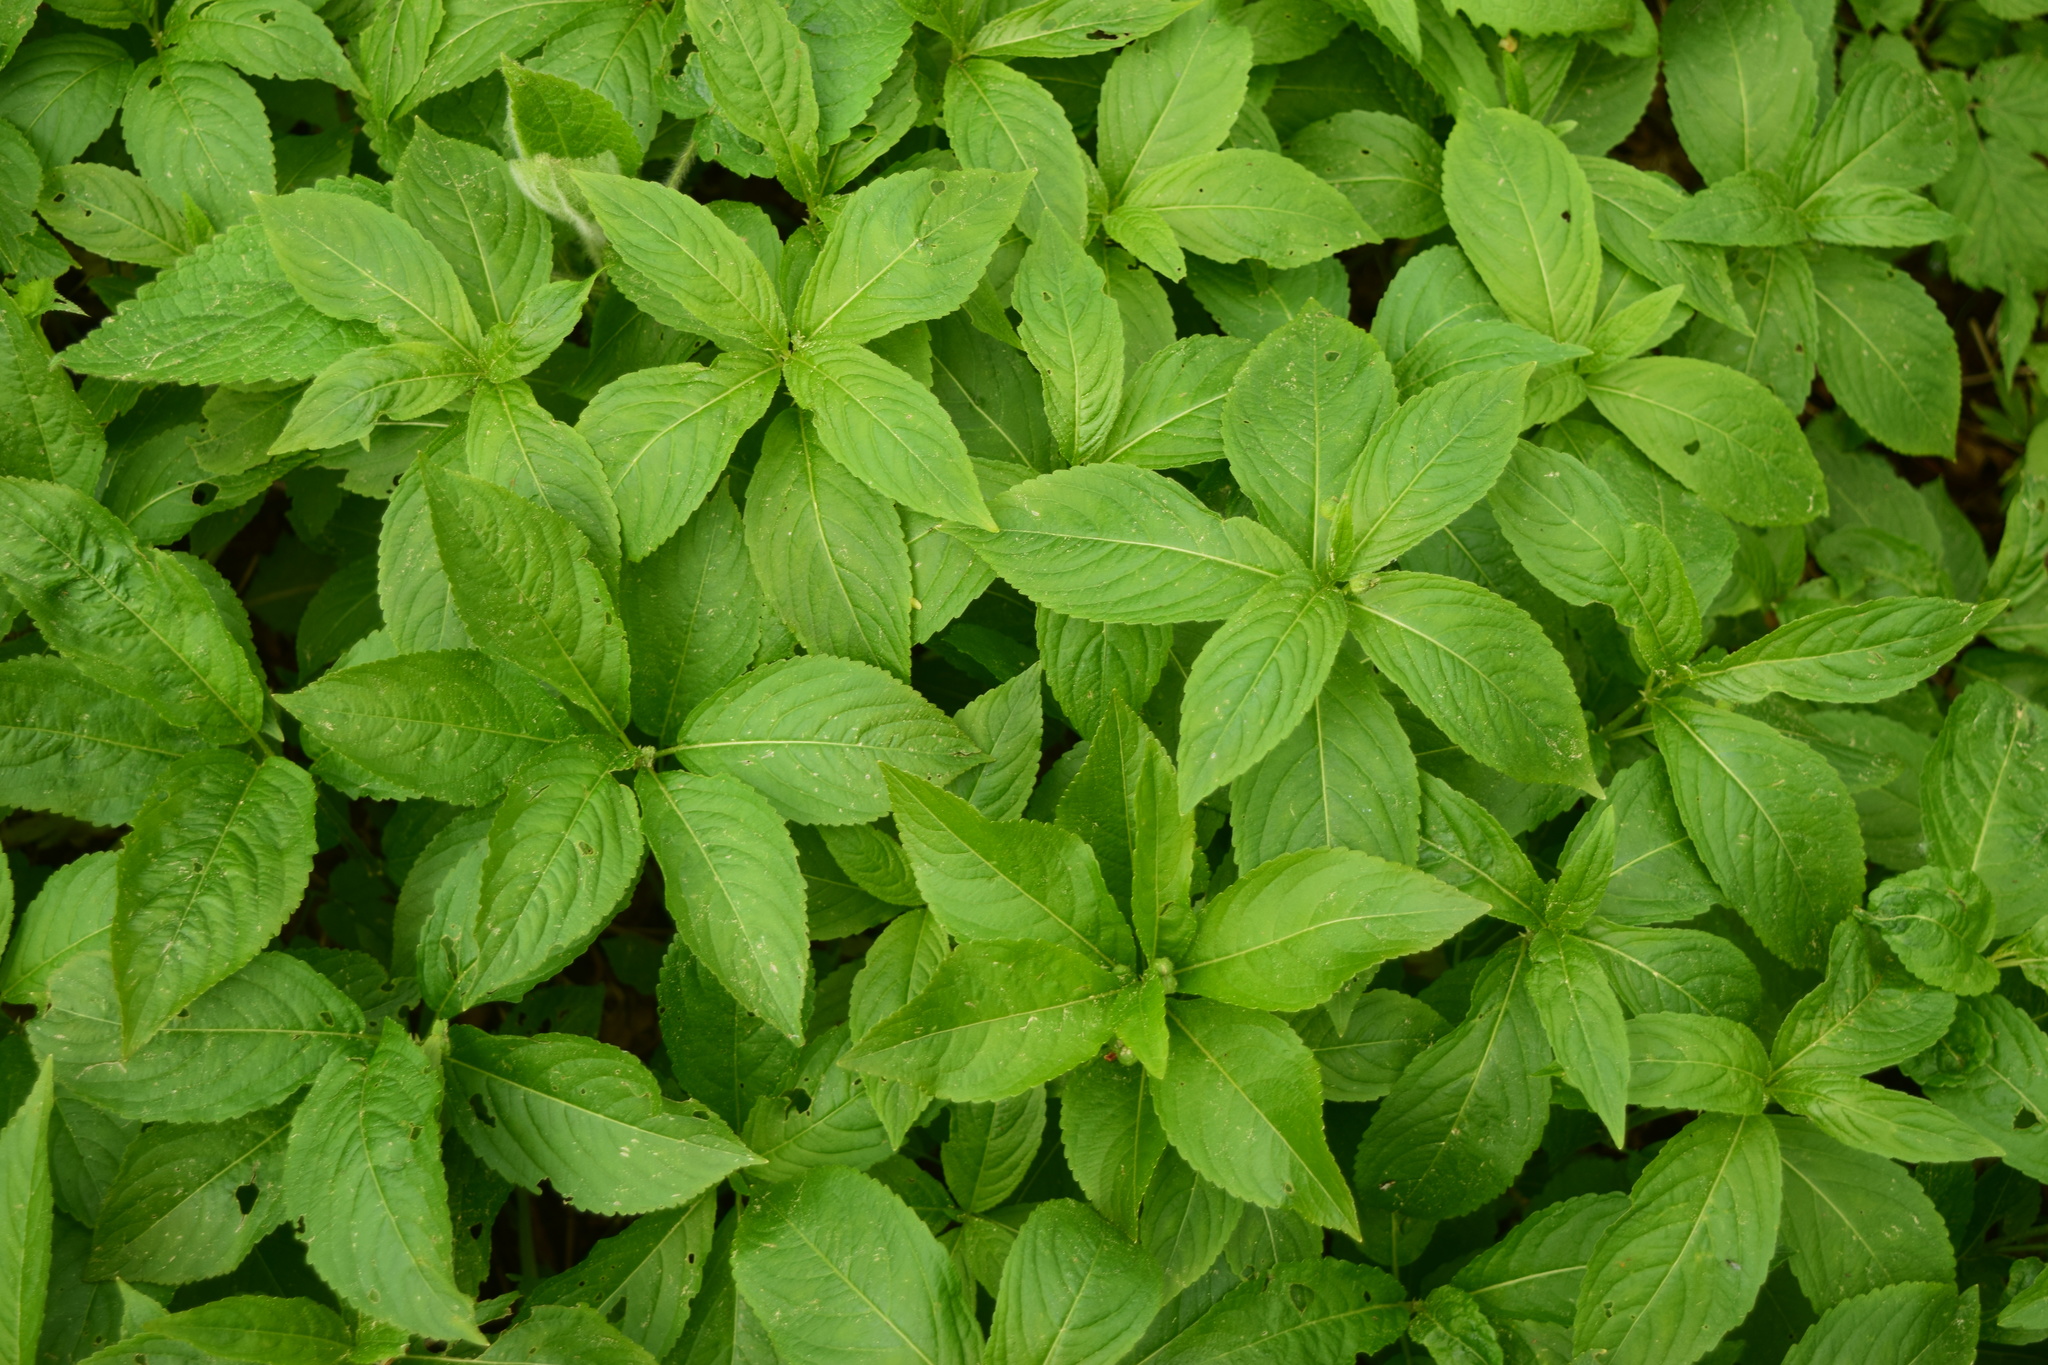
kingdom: Plantae
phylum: Tracheophyta
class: Magnoliopsida
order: Malpighiales
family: Euphorbiaceae
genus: Mercurialis
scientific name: Mercurialis perennis
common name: Dog mercury
